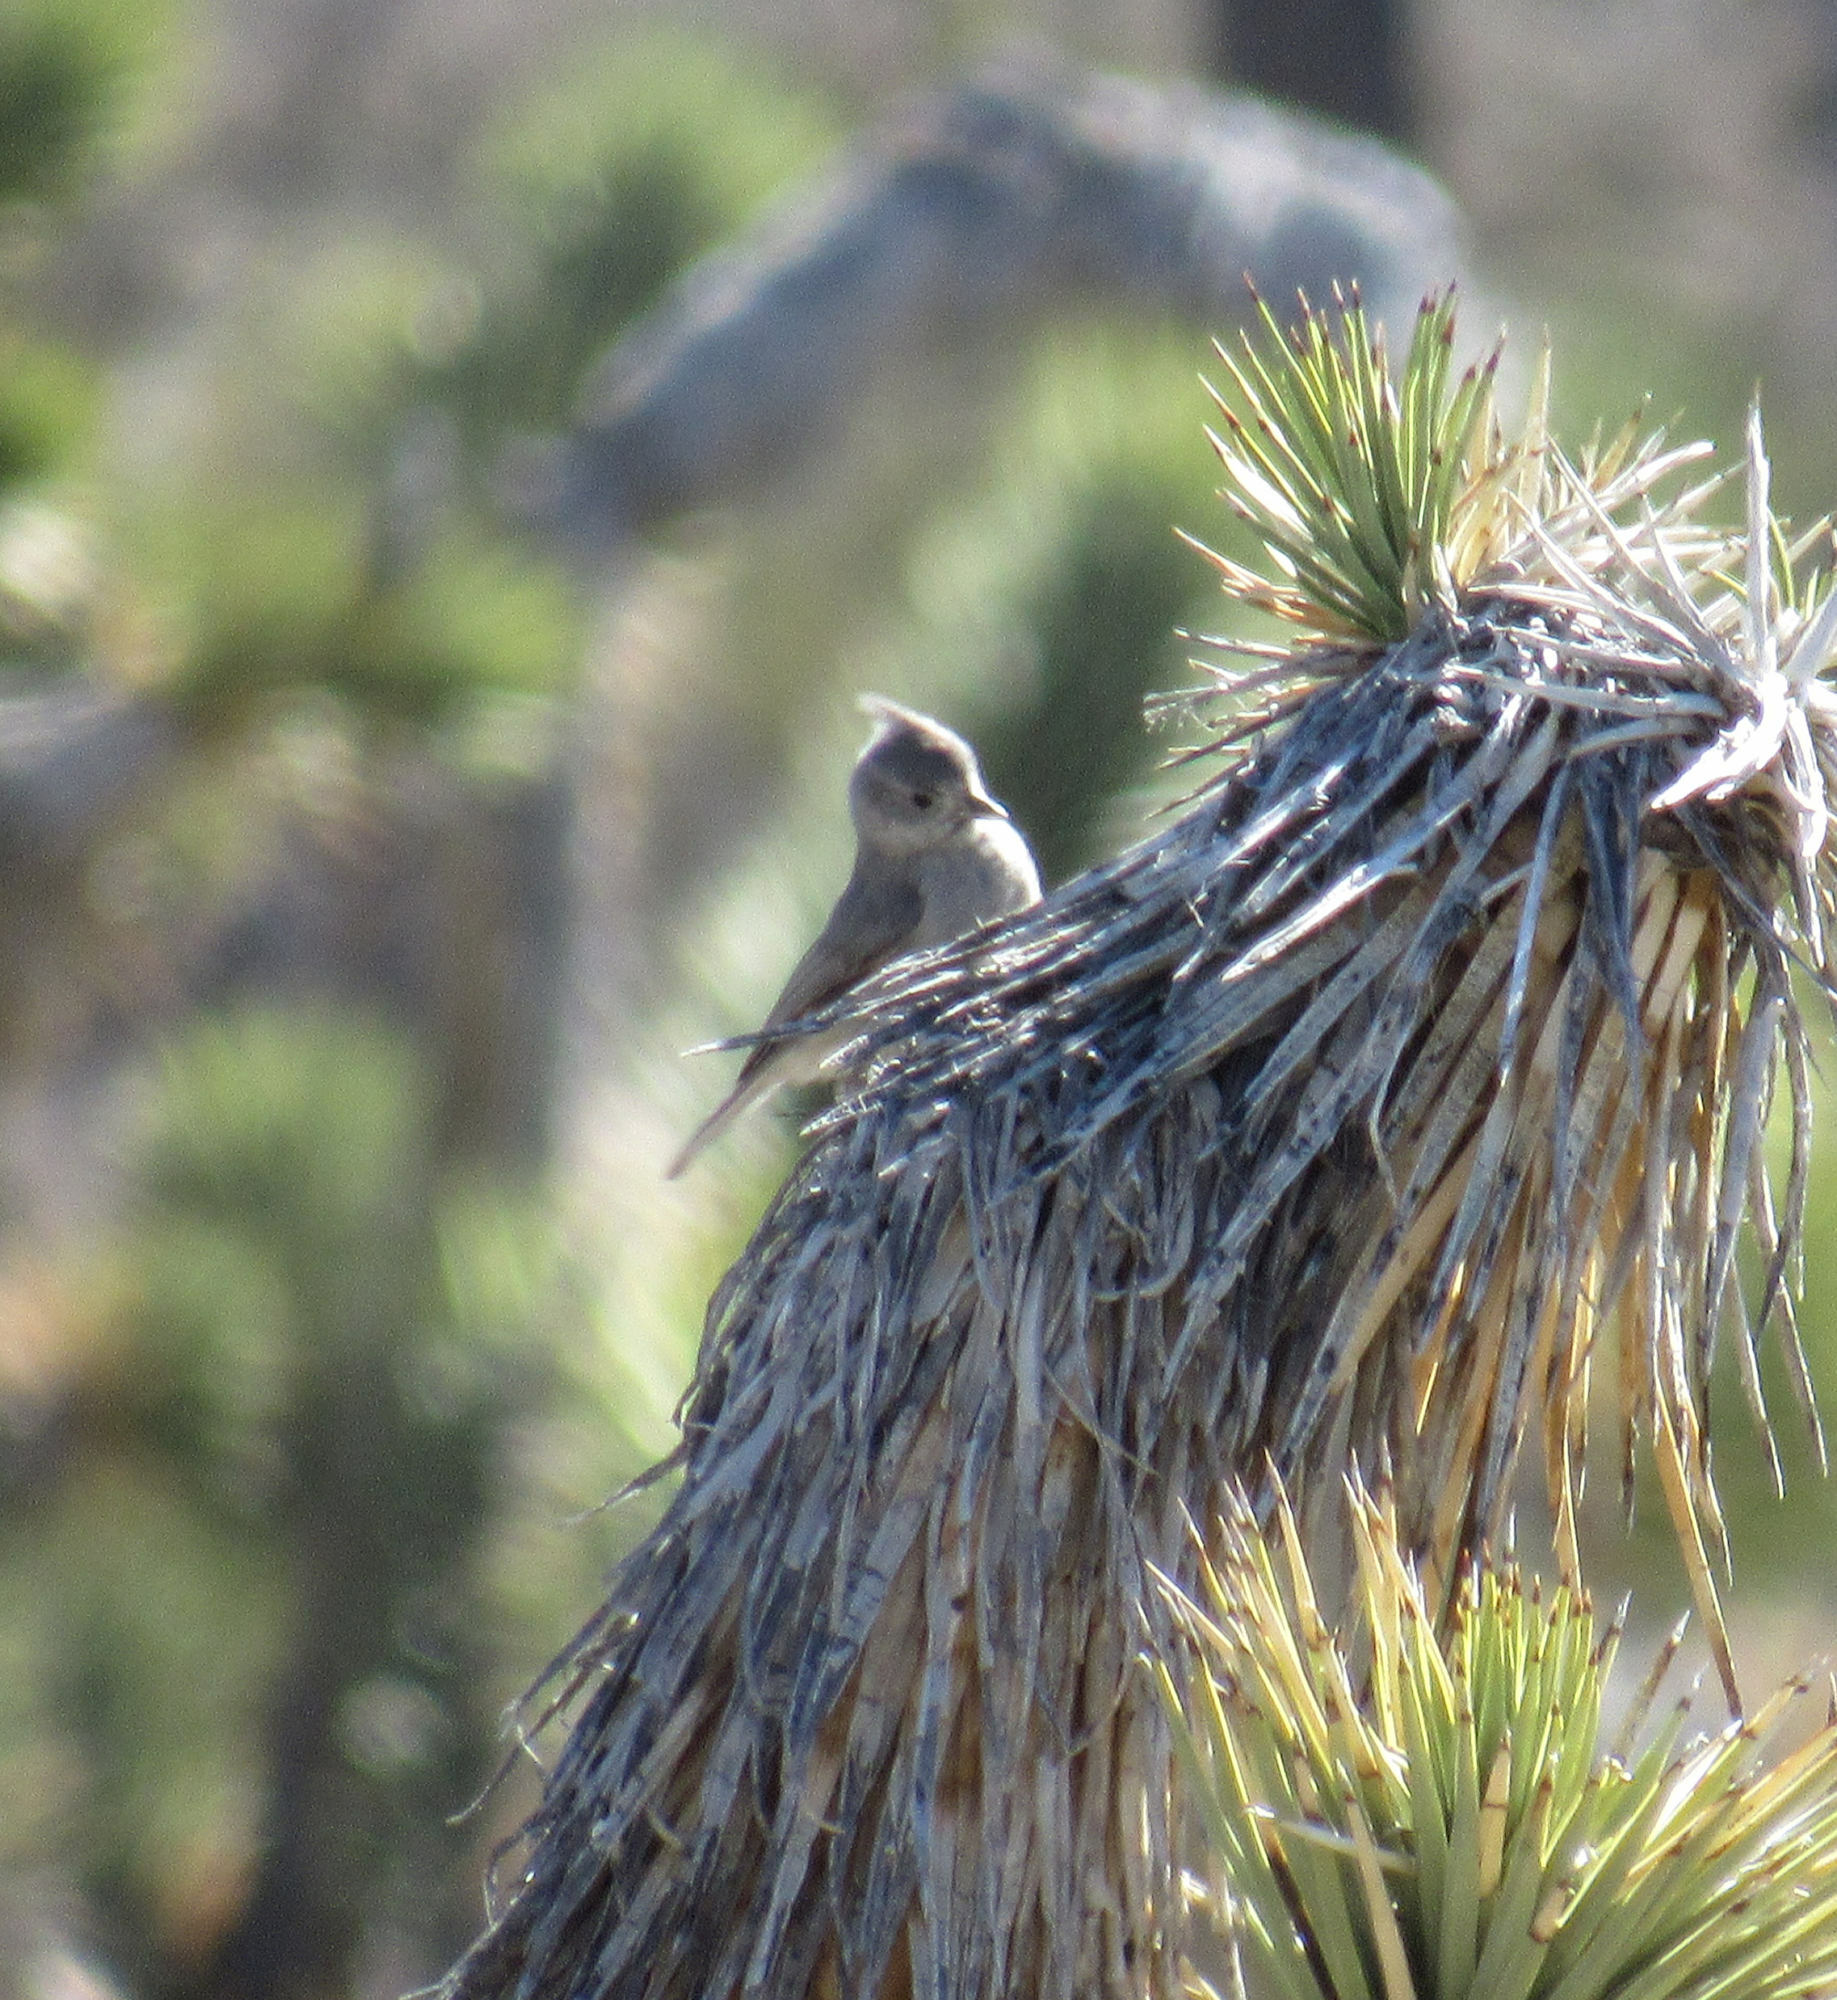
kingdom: Animalia
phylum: Chordata
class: Aves
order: Passeriformes
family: Paridae
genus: Baeolophus
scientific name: Baeolophus ridgwayi
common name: Juniper titmouse
